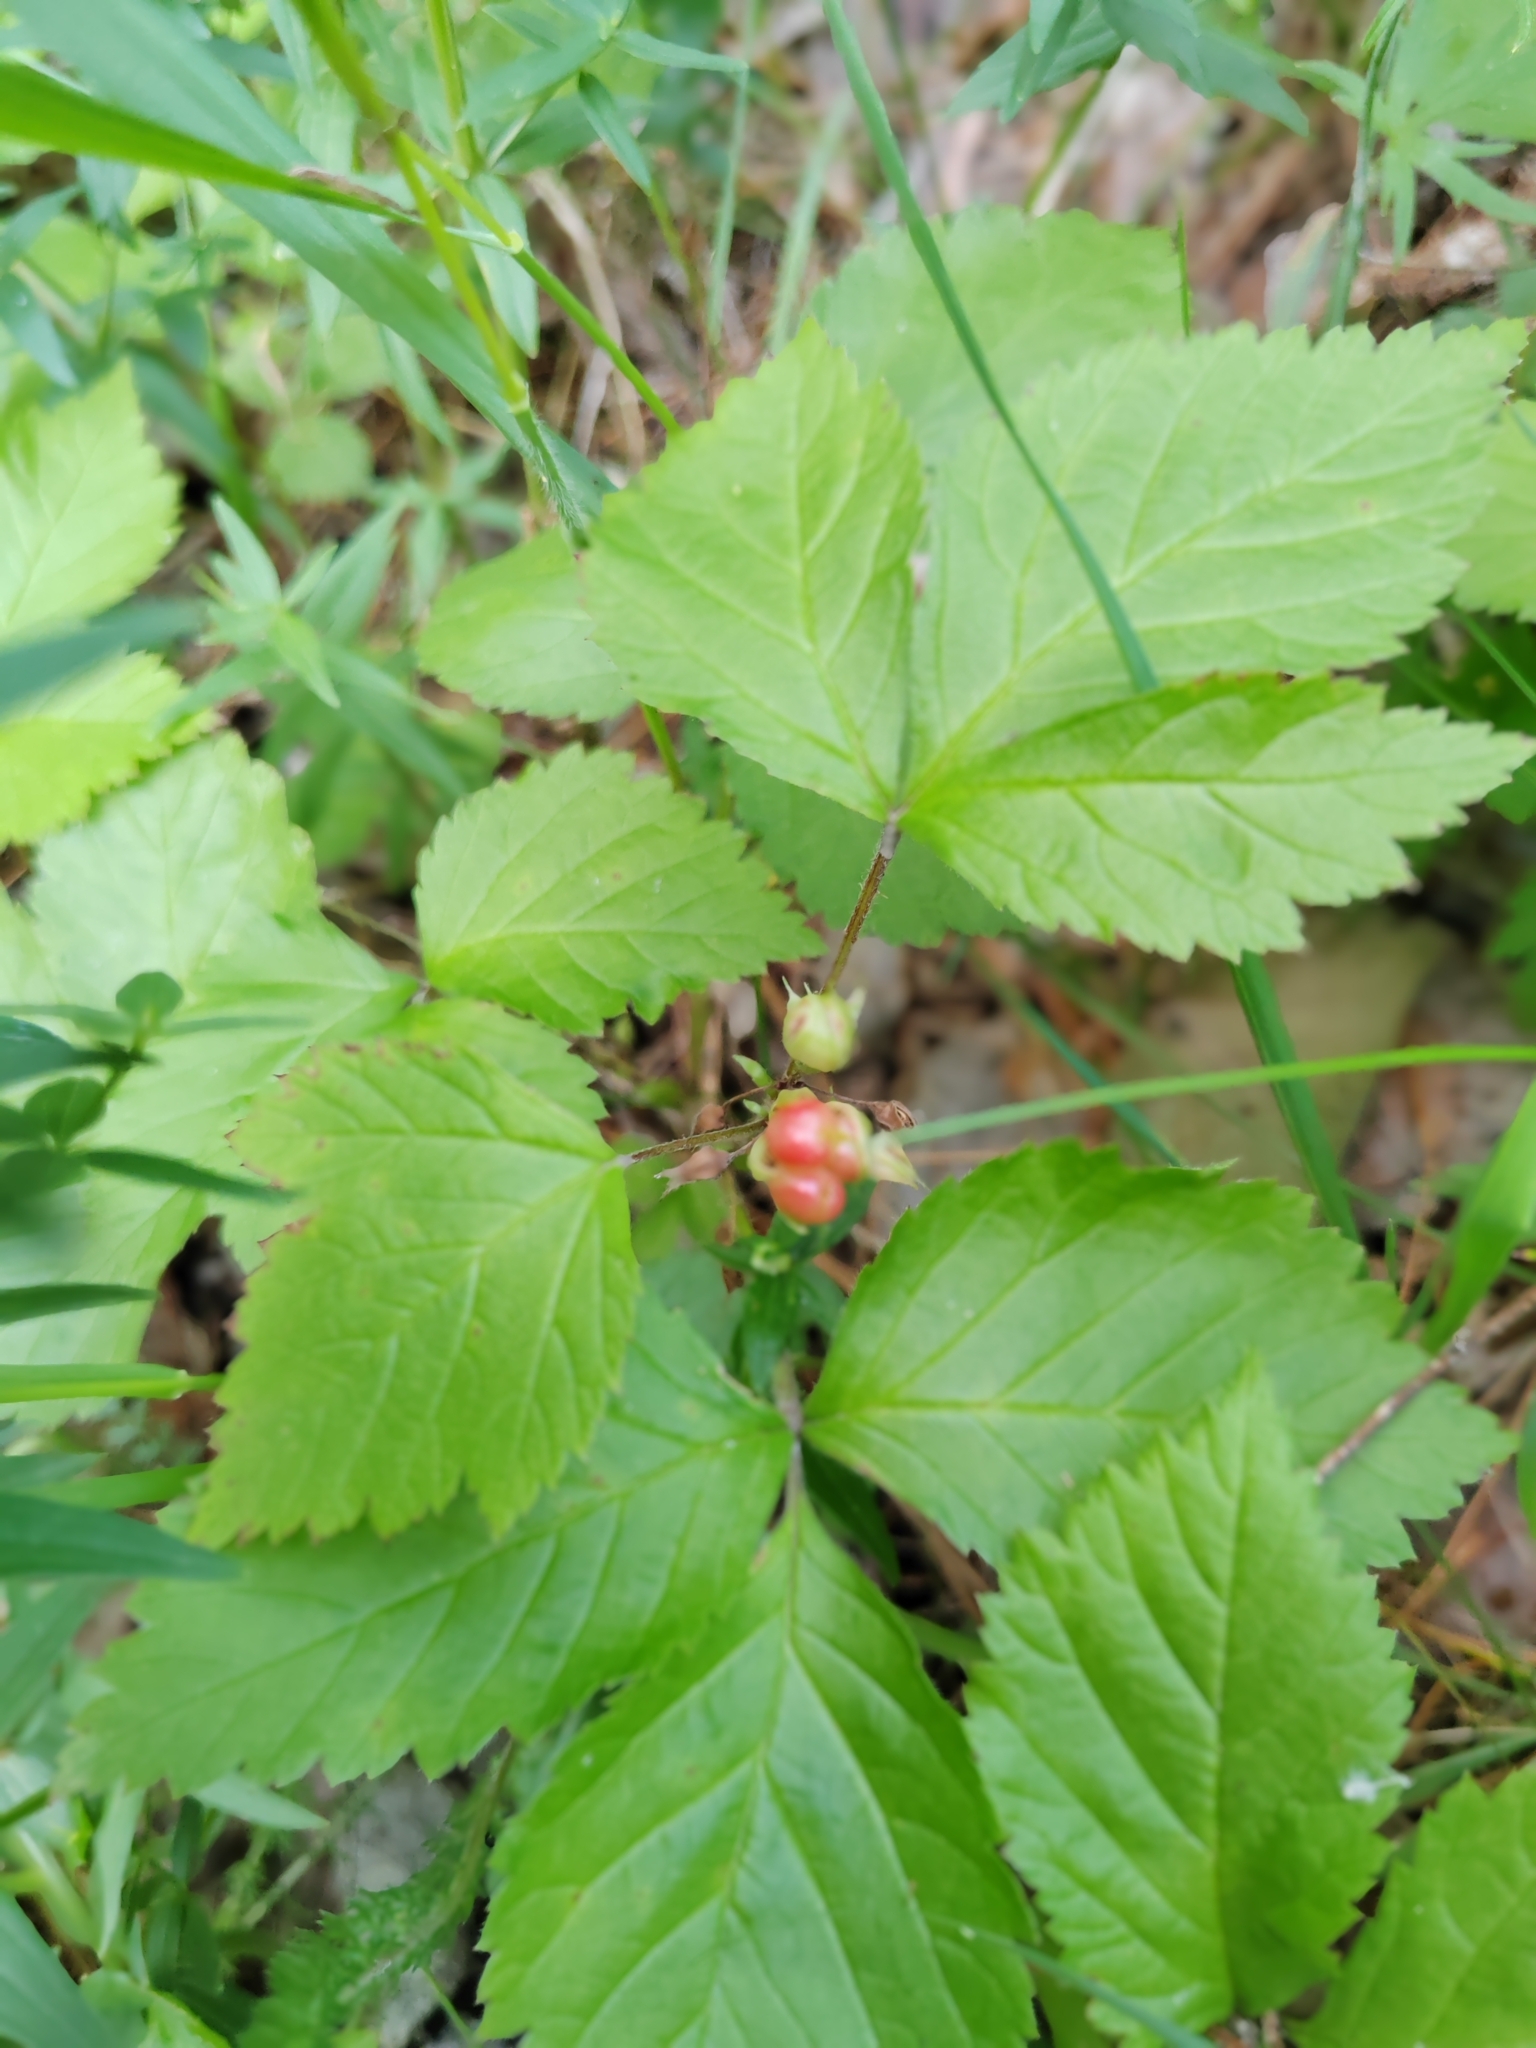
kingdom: Plantae
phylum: Tracheophyta
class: Magnoliopsida
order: Rosales
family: Rosaceae
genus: Rubus
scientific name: Rubus saxatilis
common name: Stone bramble
